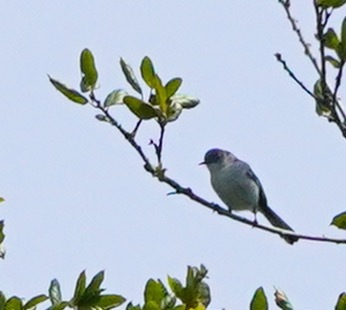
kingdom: Animalia
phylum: Chordata
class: Aves
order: Passeriformes
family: Polioptilidae
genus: Polioptila
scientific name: Polioptila caerulea
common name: Blue-gray gnatcatcher
